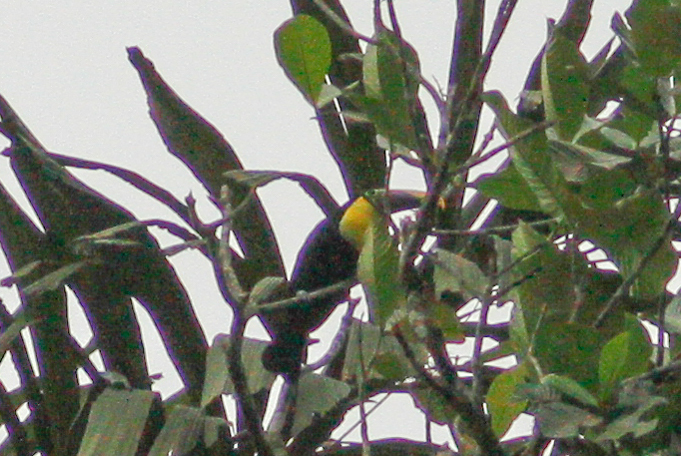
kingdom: Animalia
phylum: Chordata
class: Aves
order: Piciformes
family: Ramphastidae
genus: Ramphastos
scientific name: Ramphastos ambiguus
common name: Yellow-throated toucan
